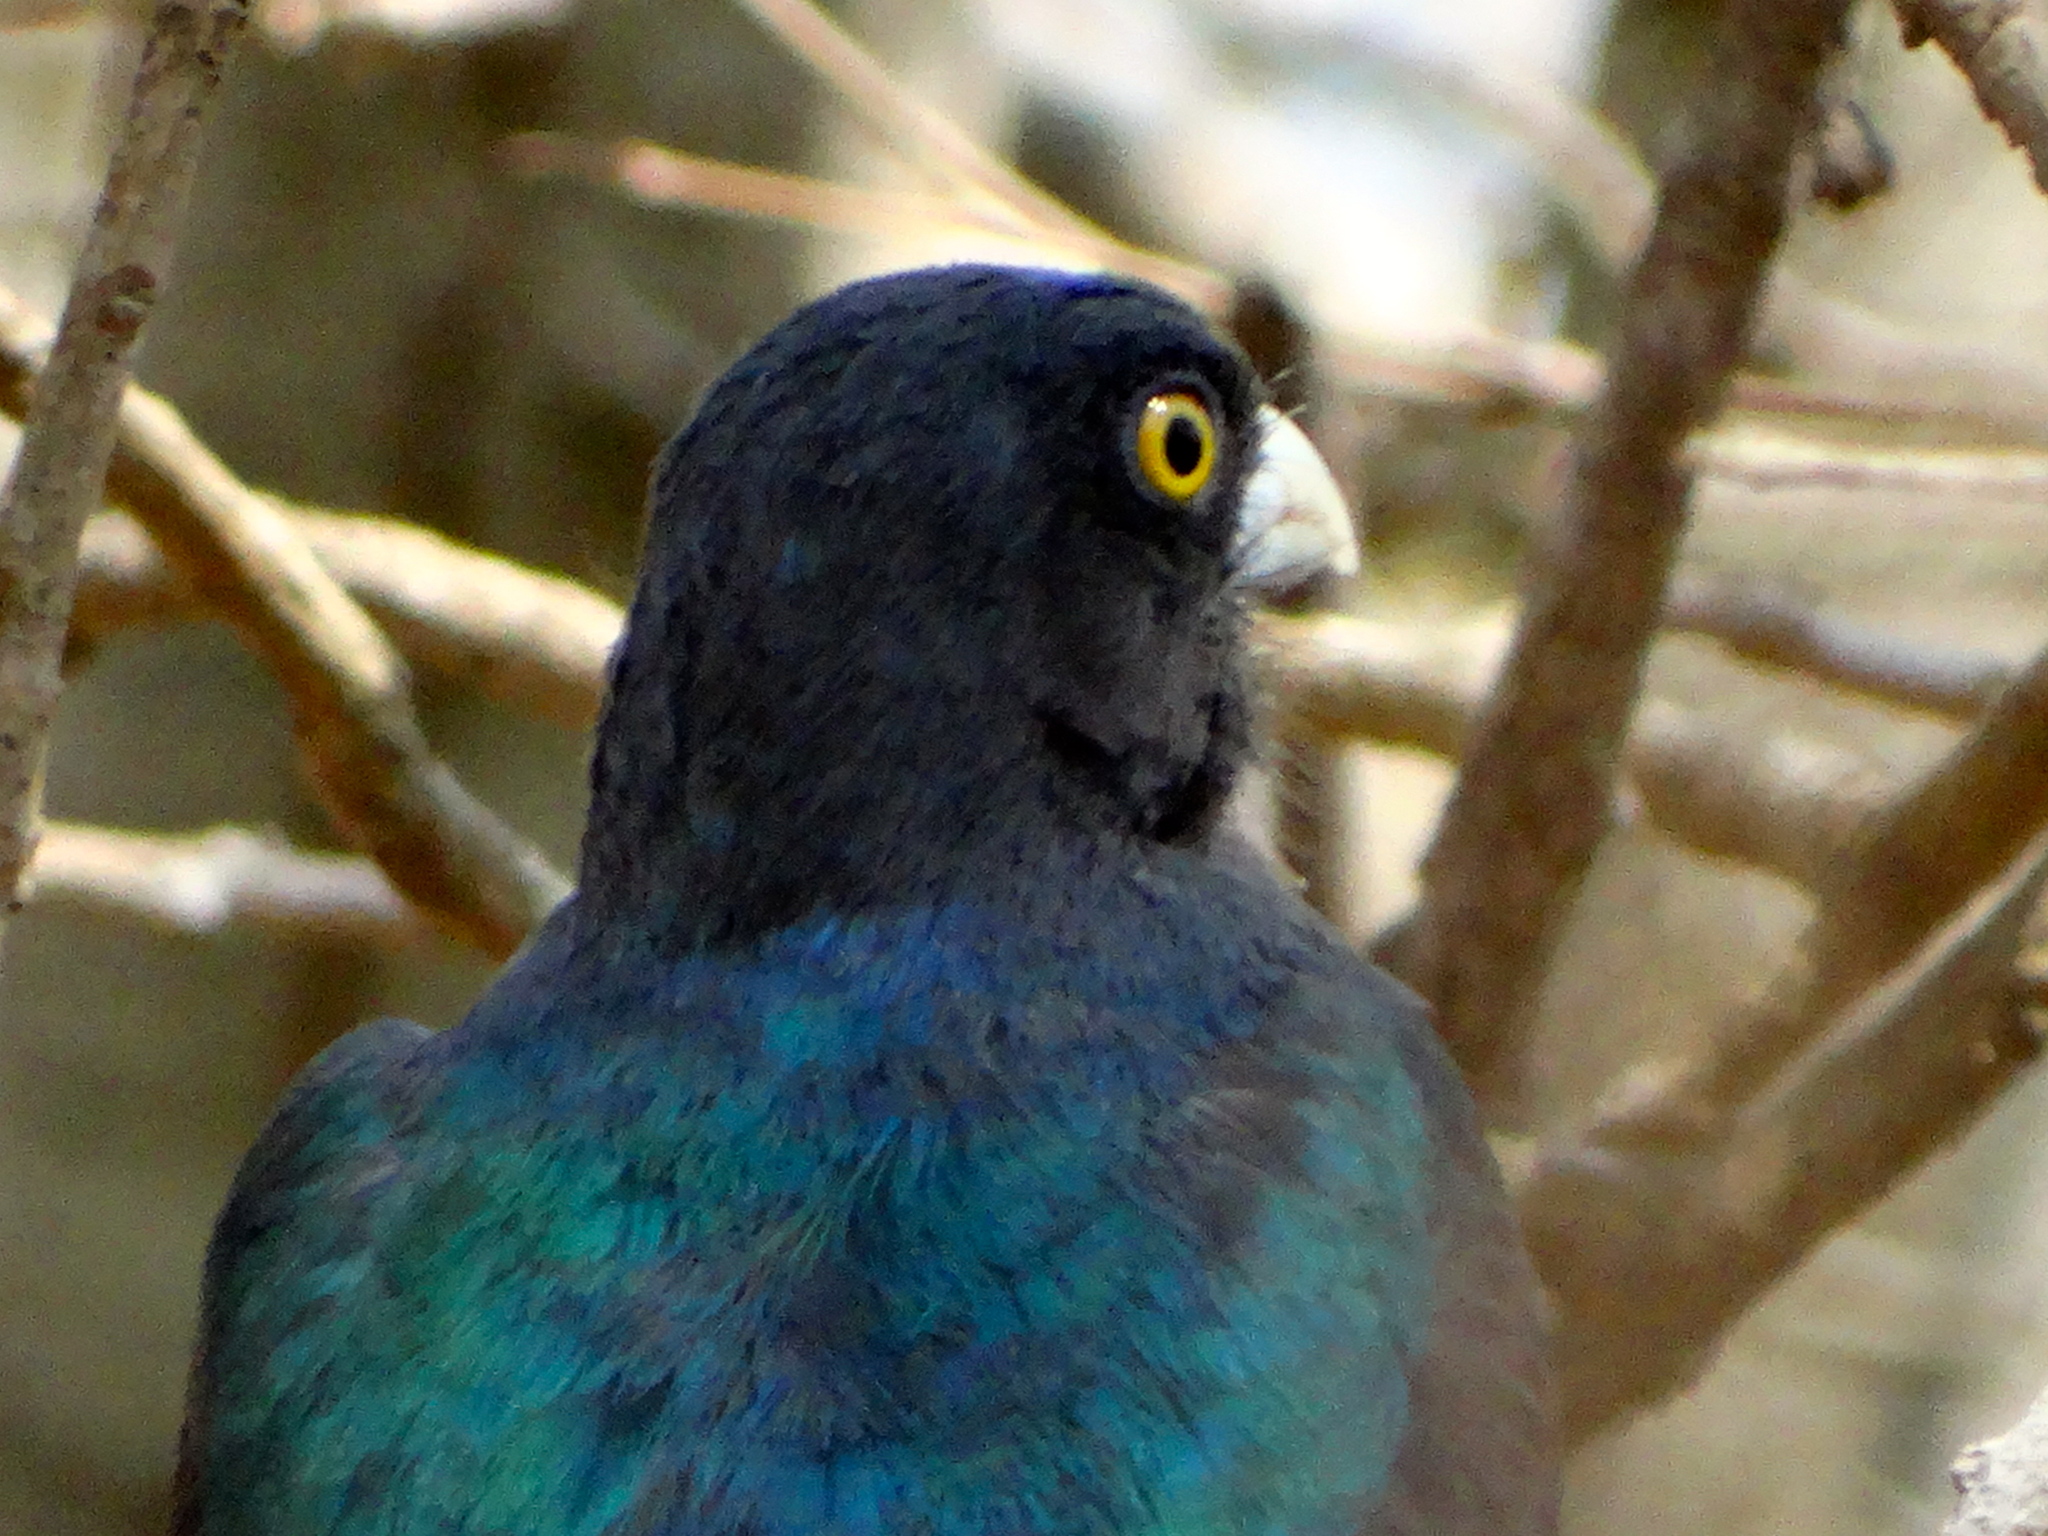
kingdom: Animalia
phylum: Chordata
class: Aves
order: Trogoniformes
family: Trogonidae
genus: Trogon
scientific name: Trogon citreolus
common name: Citreoline trogon
